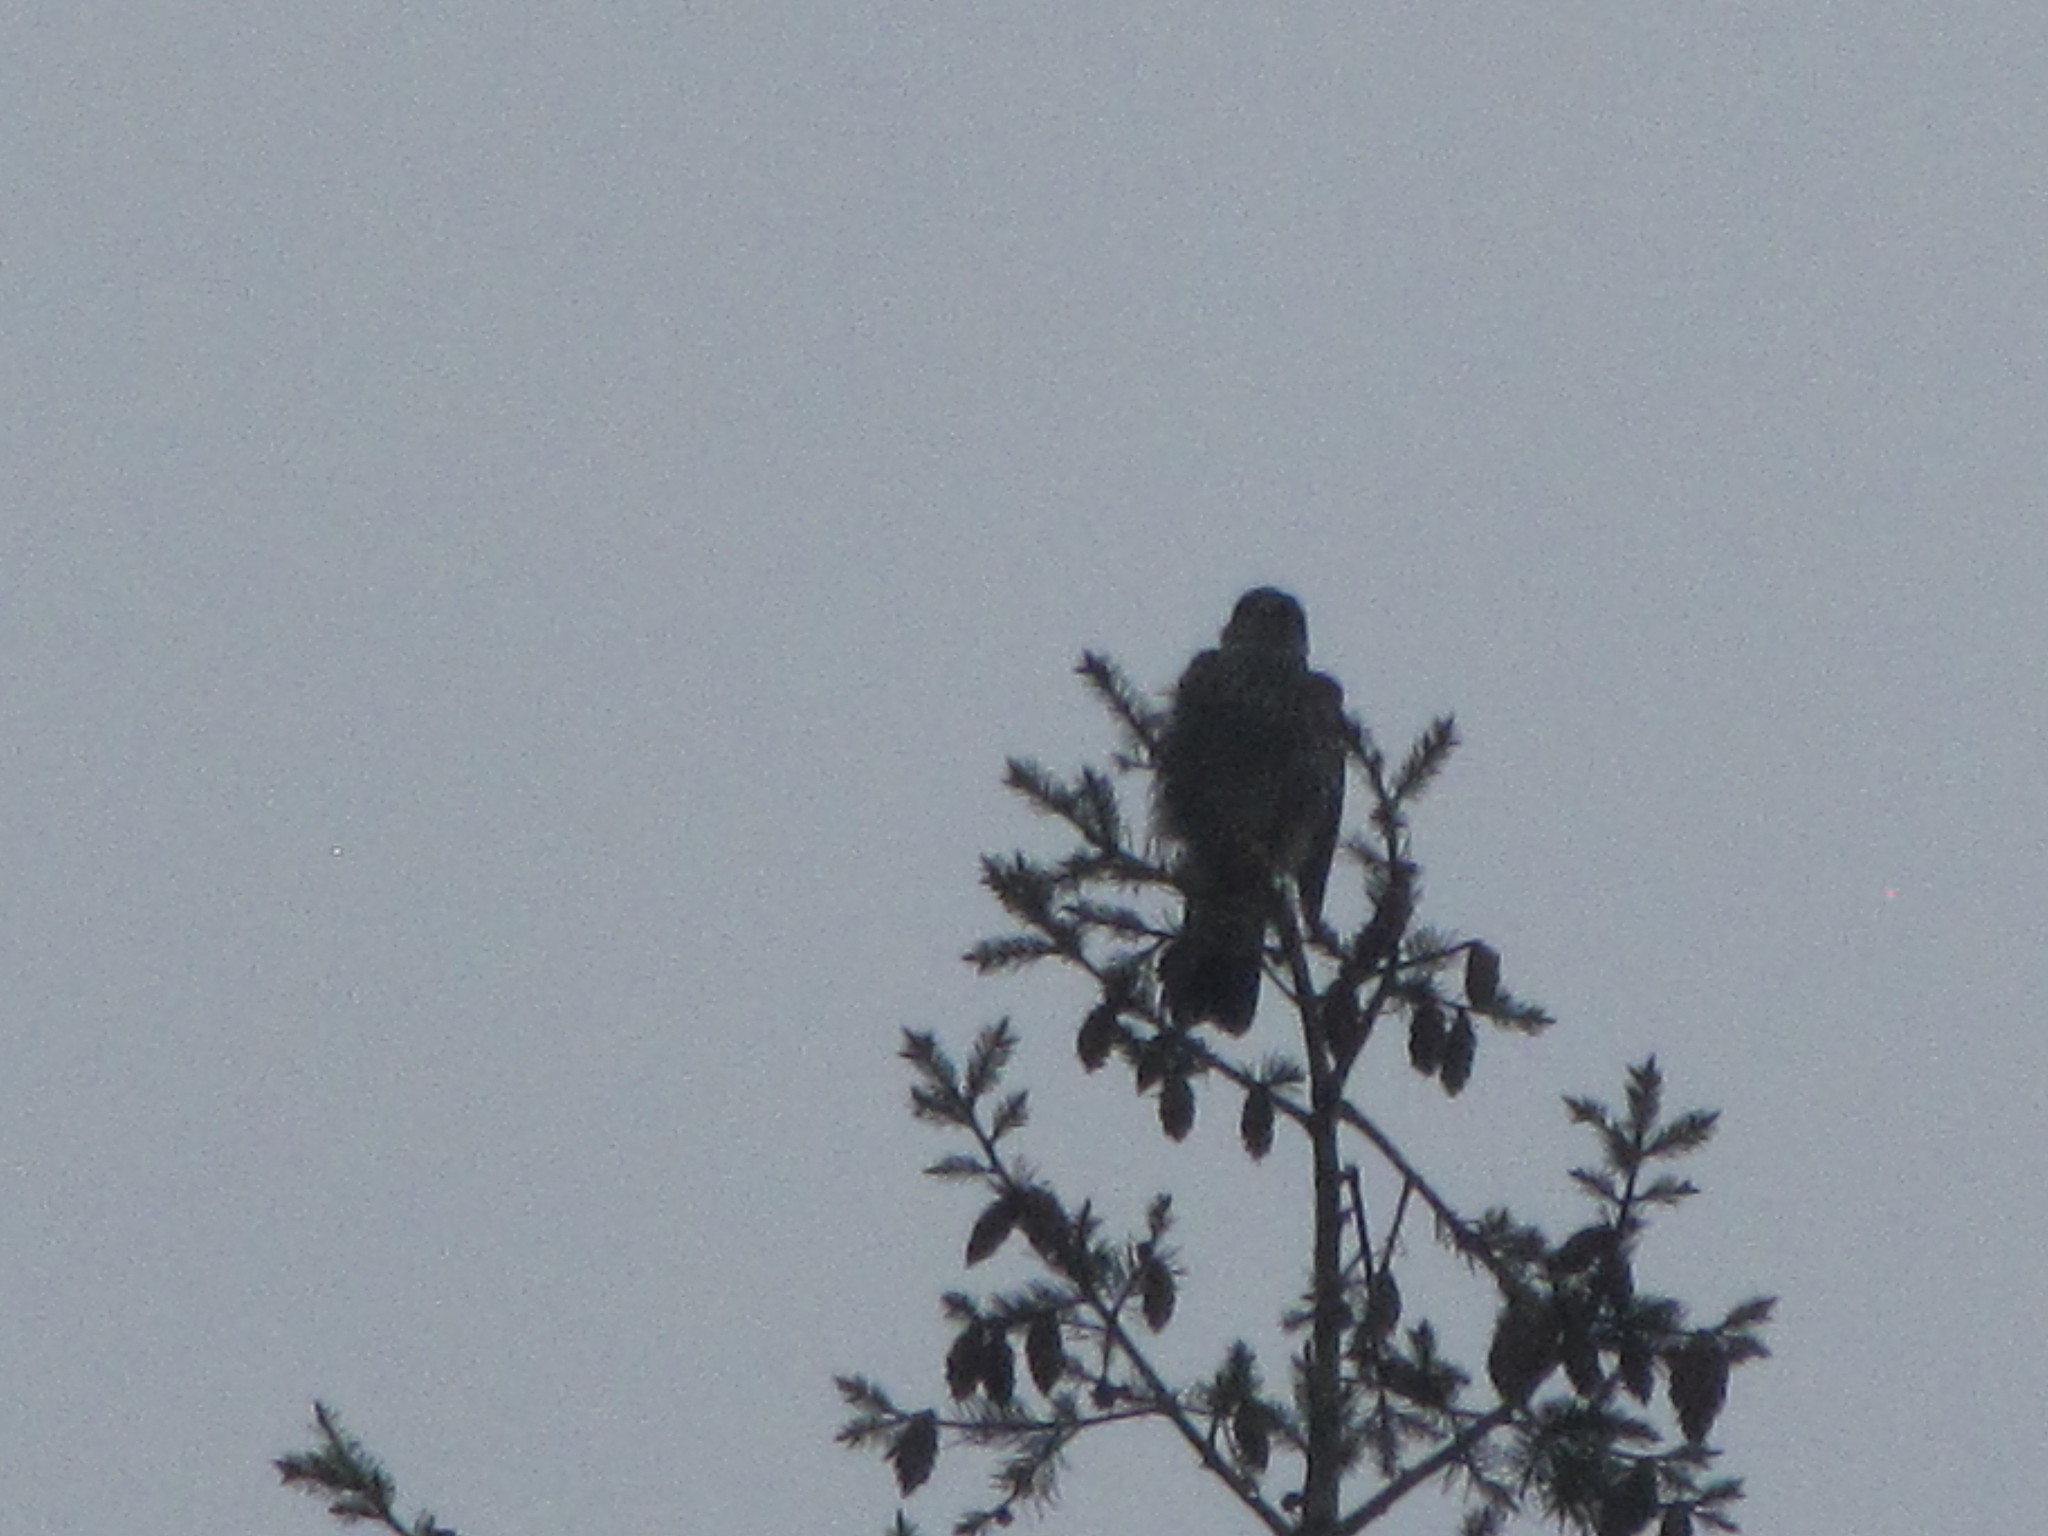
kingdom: Animalia
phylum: Chordata
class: Aves
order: Falconiformes
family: Falconidae
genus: Falco
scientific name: Falco columbarius
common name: Merlin
